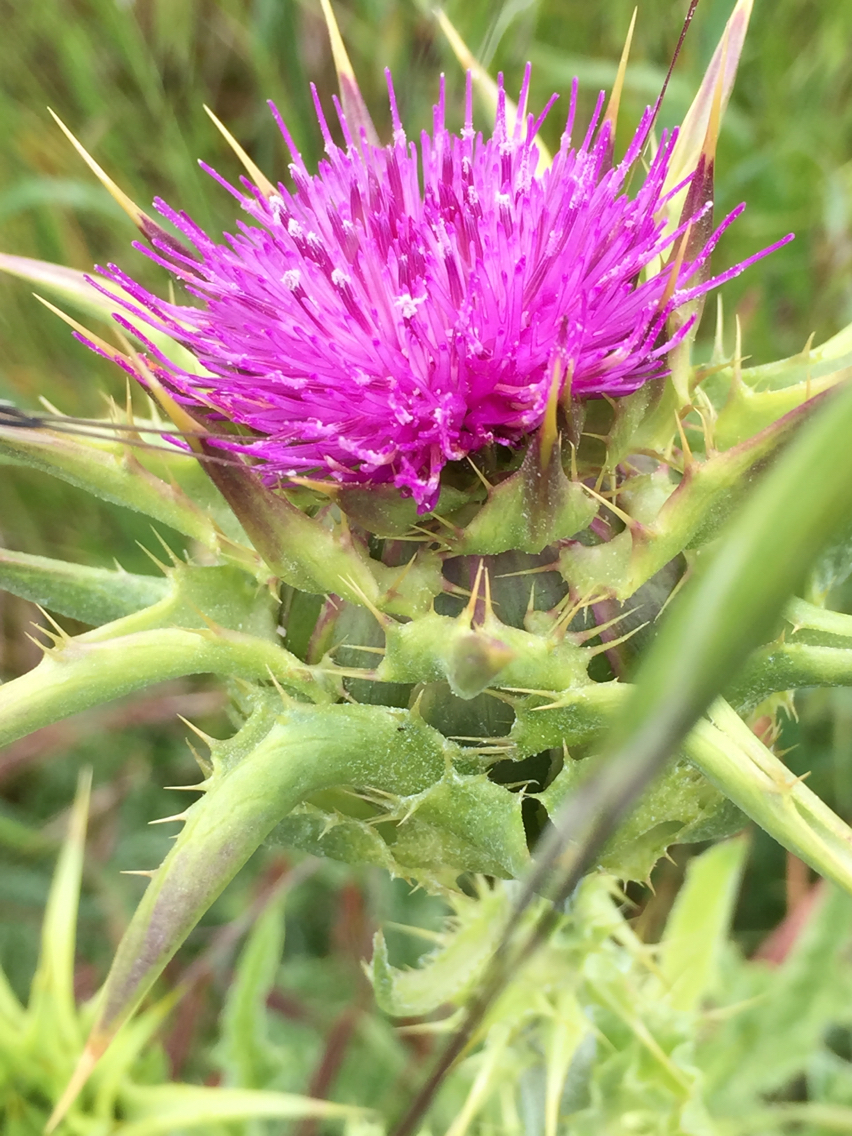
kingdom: Plantae
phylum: Tracheophyta
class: Magnoliopsida
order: Asterales
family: Asteraceae
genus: Silybum
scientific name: Silybum marianum
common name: Milk thistle
